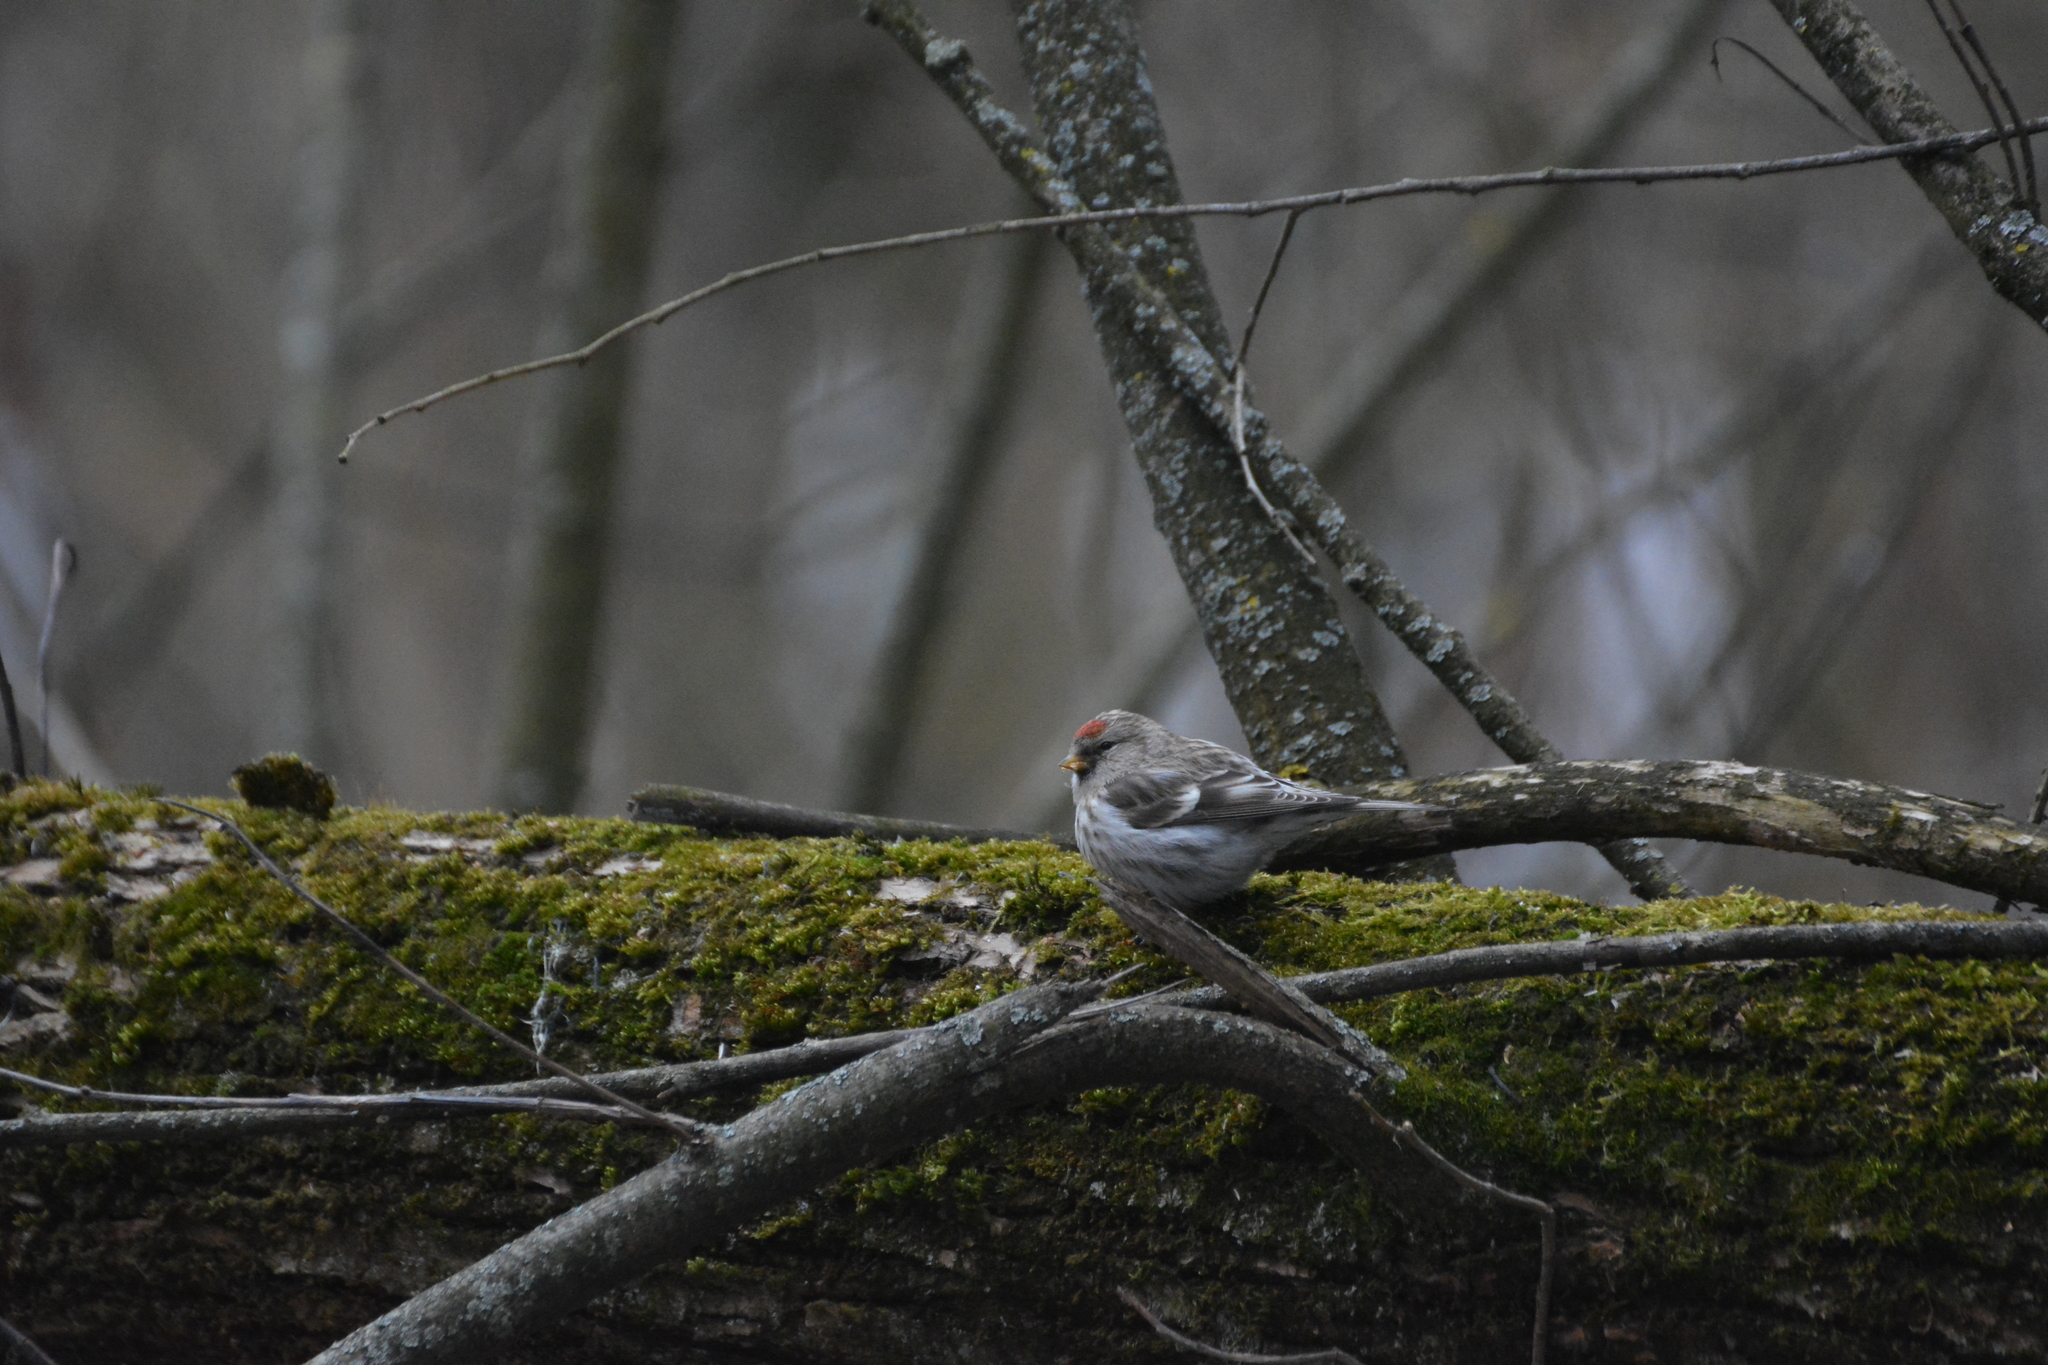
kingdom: Animalia
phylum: Chordata
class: Aves
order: Passeriformes
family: Fringillidae
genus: Acanthis
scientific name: Acanthis flammea
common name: Common redpoll
